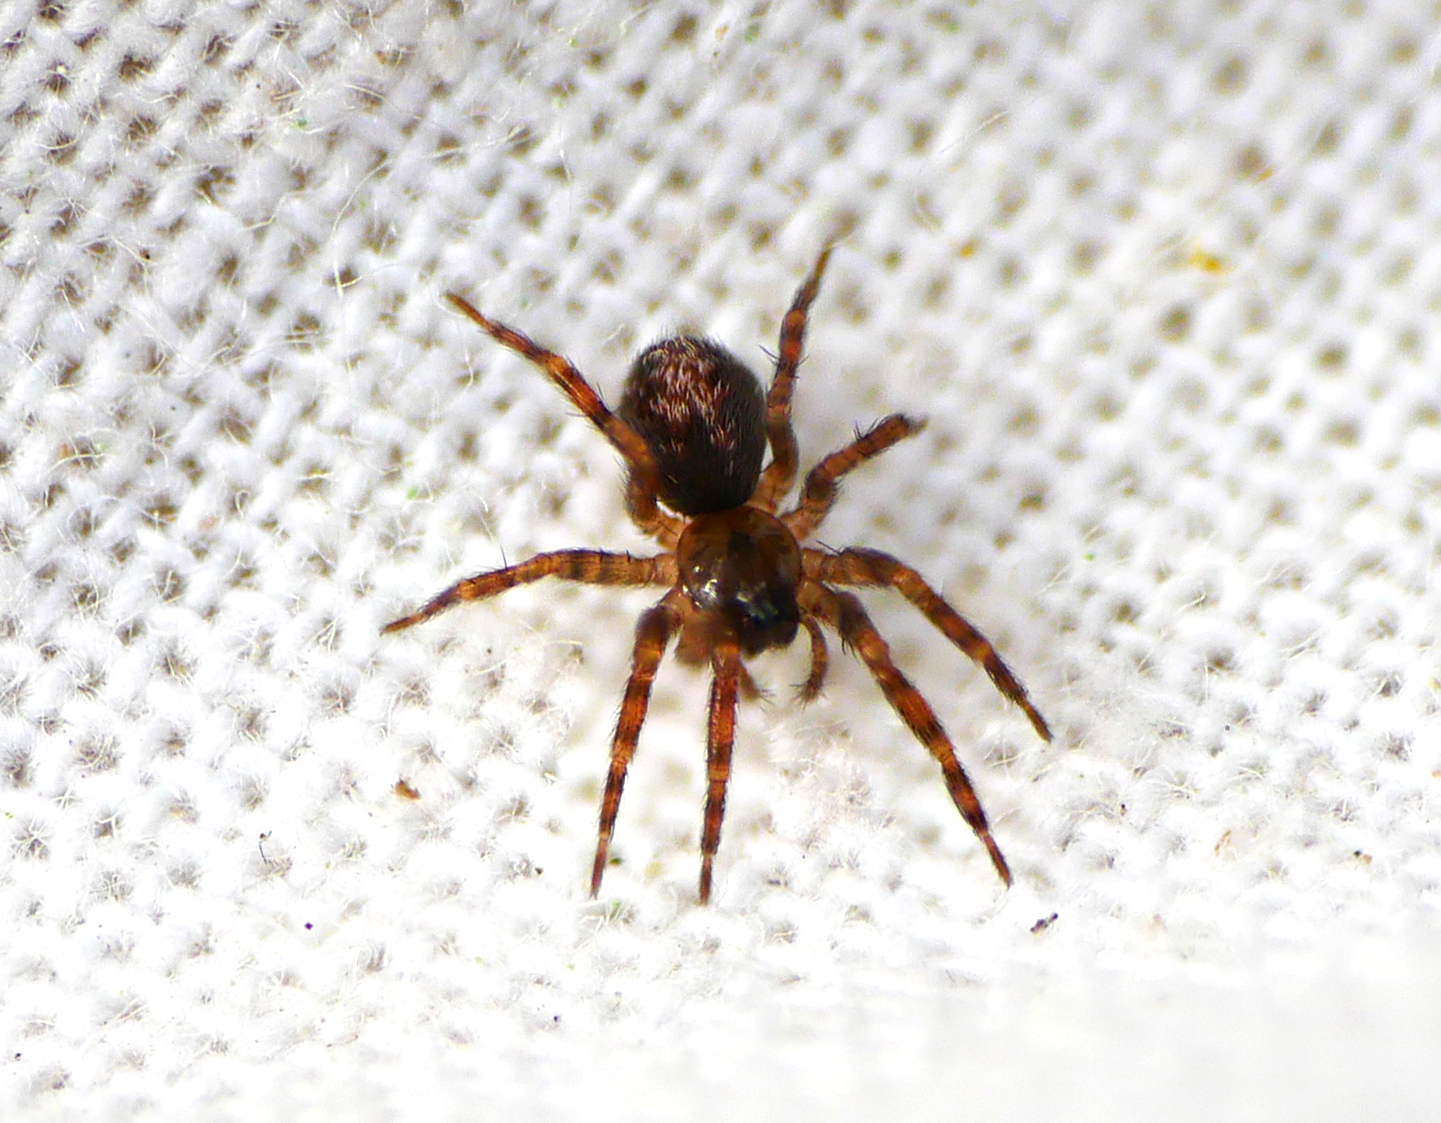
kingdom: Animalia
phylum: Arthropoda
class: Arachnida
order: Araneae
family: Cybaeidae
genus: Cryphoeca
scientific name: Cryphoeca silvicola
